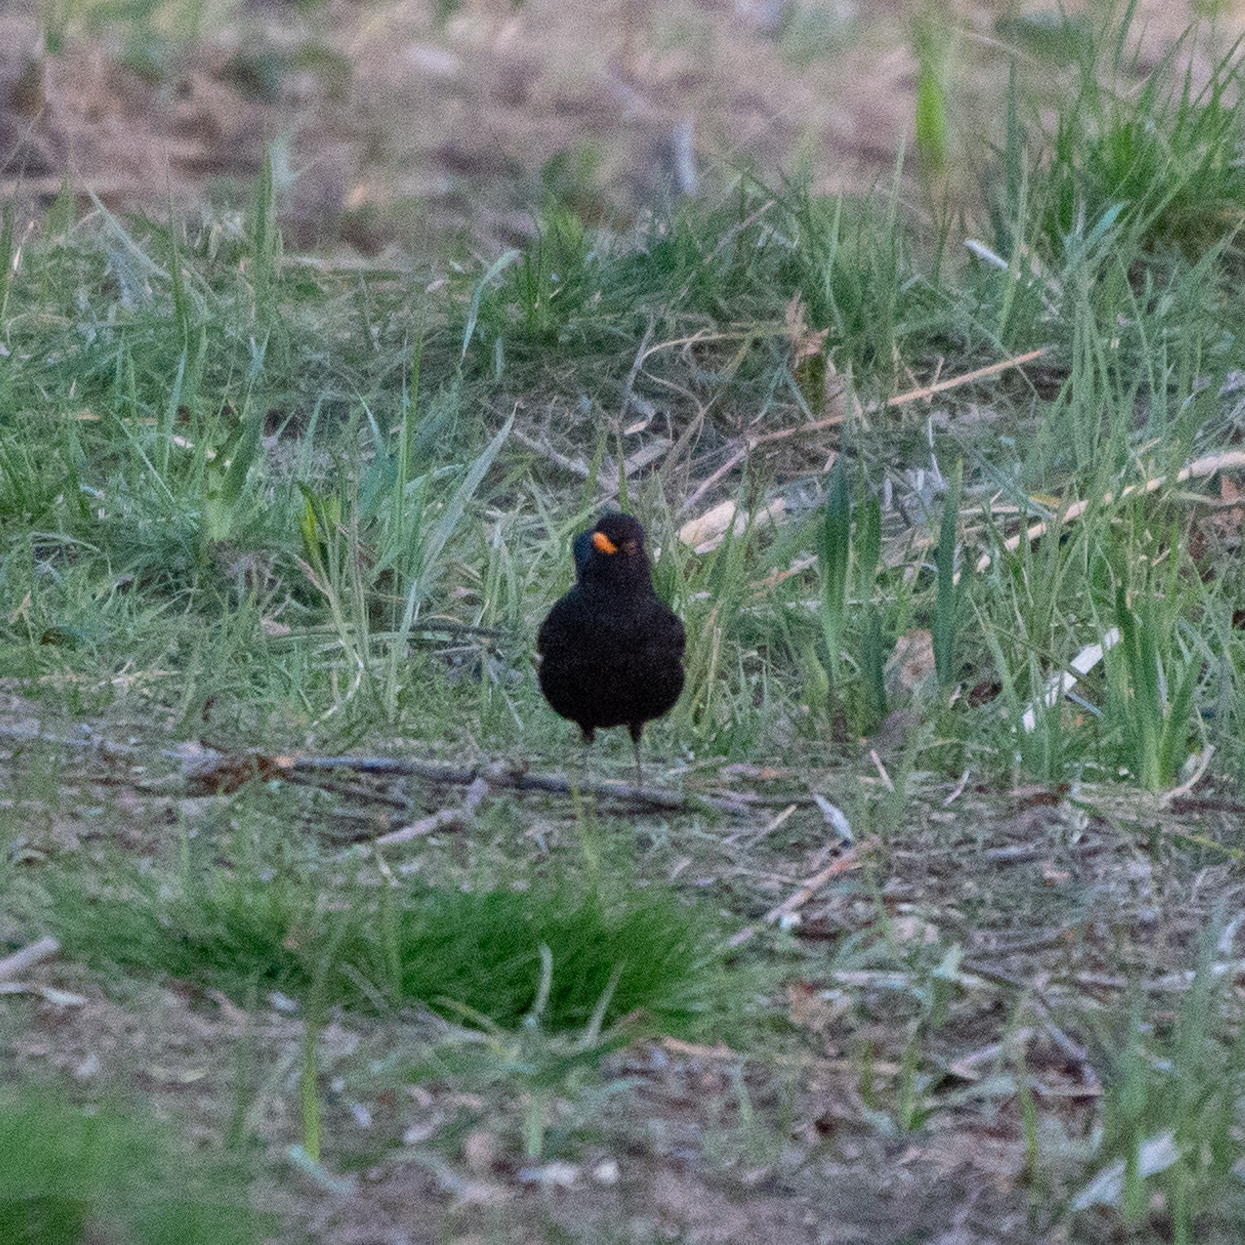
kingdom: Animalia
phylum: Chordata
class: Aves
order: Passeriformes
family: Turdidae
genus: Turdus
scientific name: Turdus merula
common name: Common blackbird
